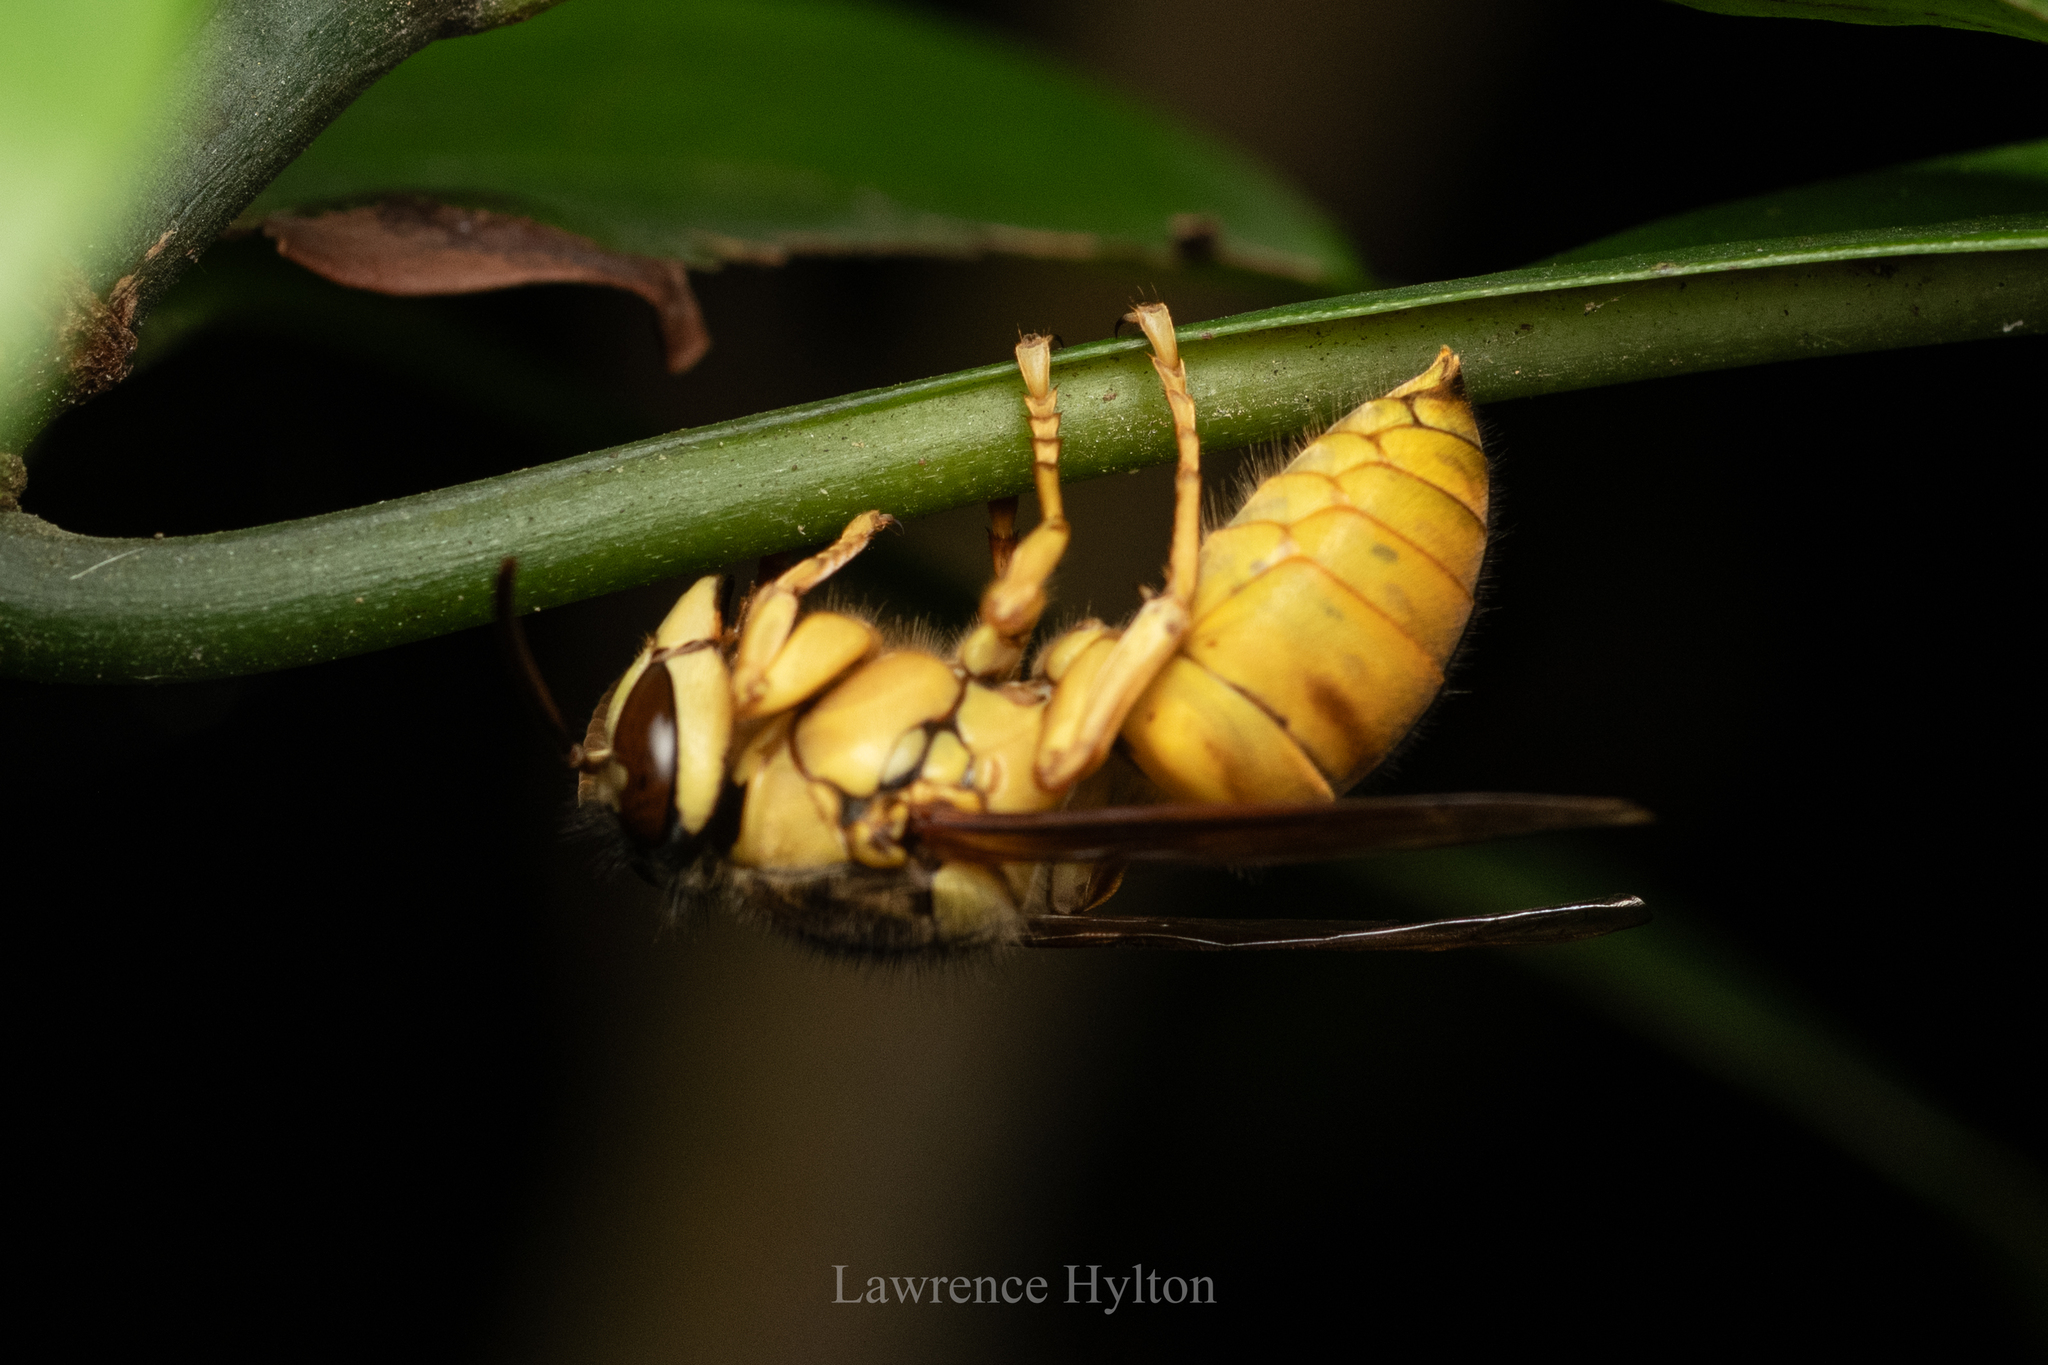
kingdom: Animalia
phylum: Arthropoda
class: Insecta
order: Hymenoptera
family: Vespidae
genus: Vespa
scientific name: Vespa bicolor
